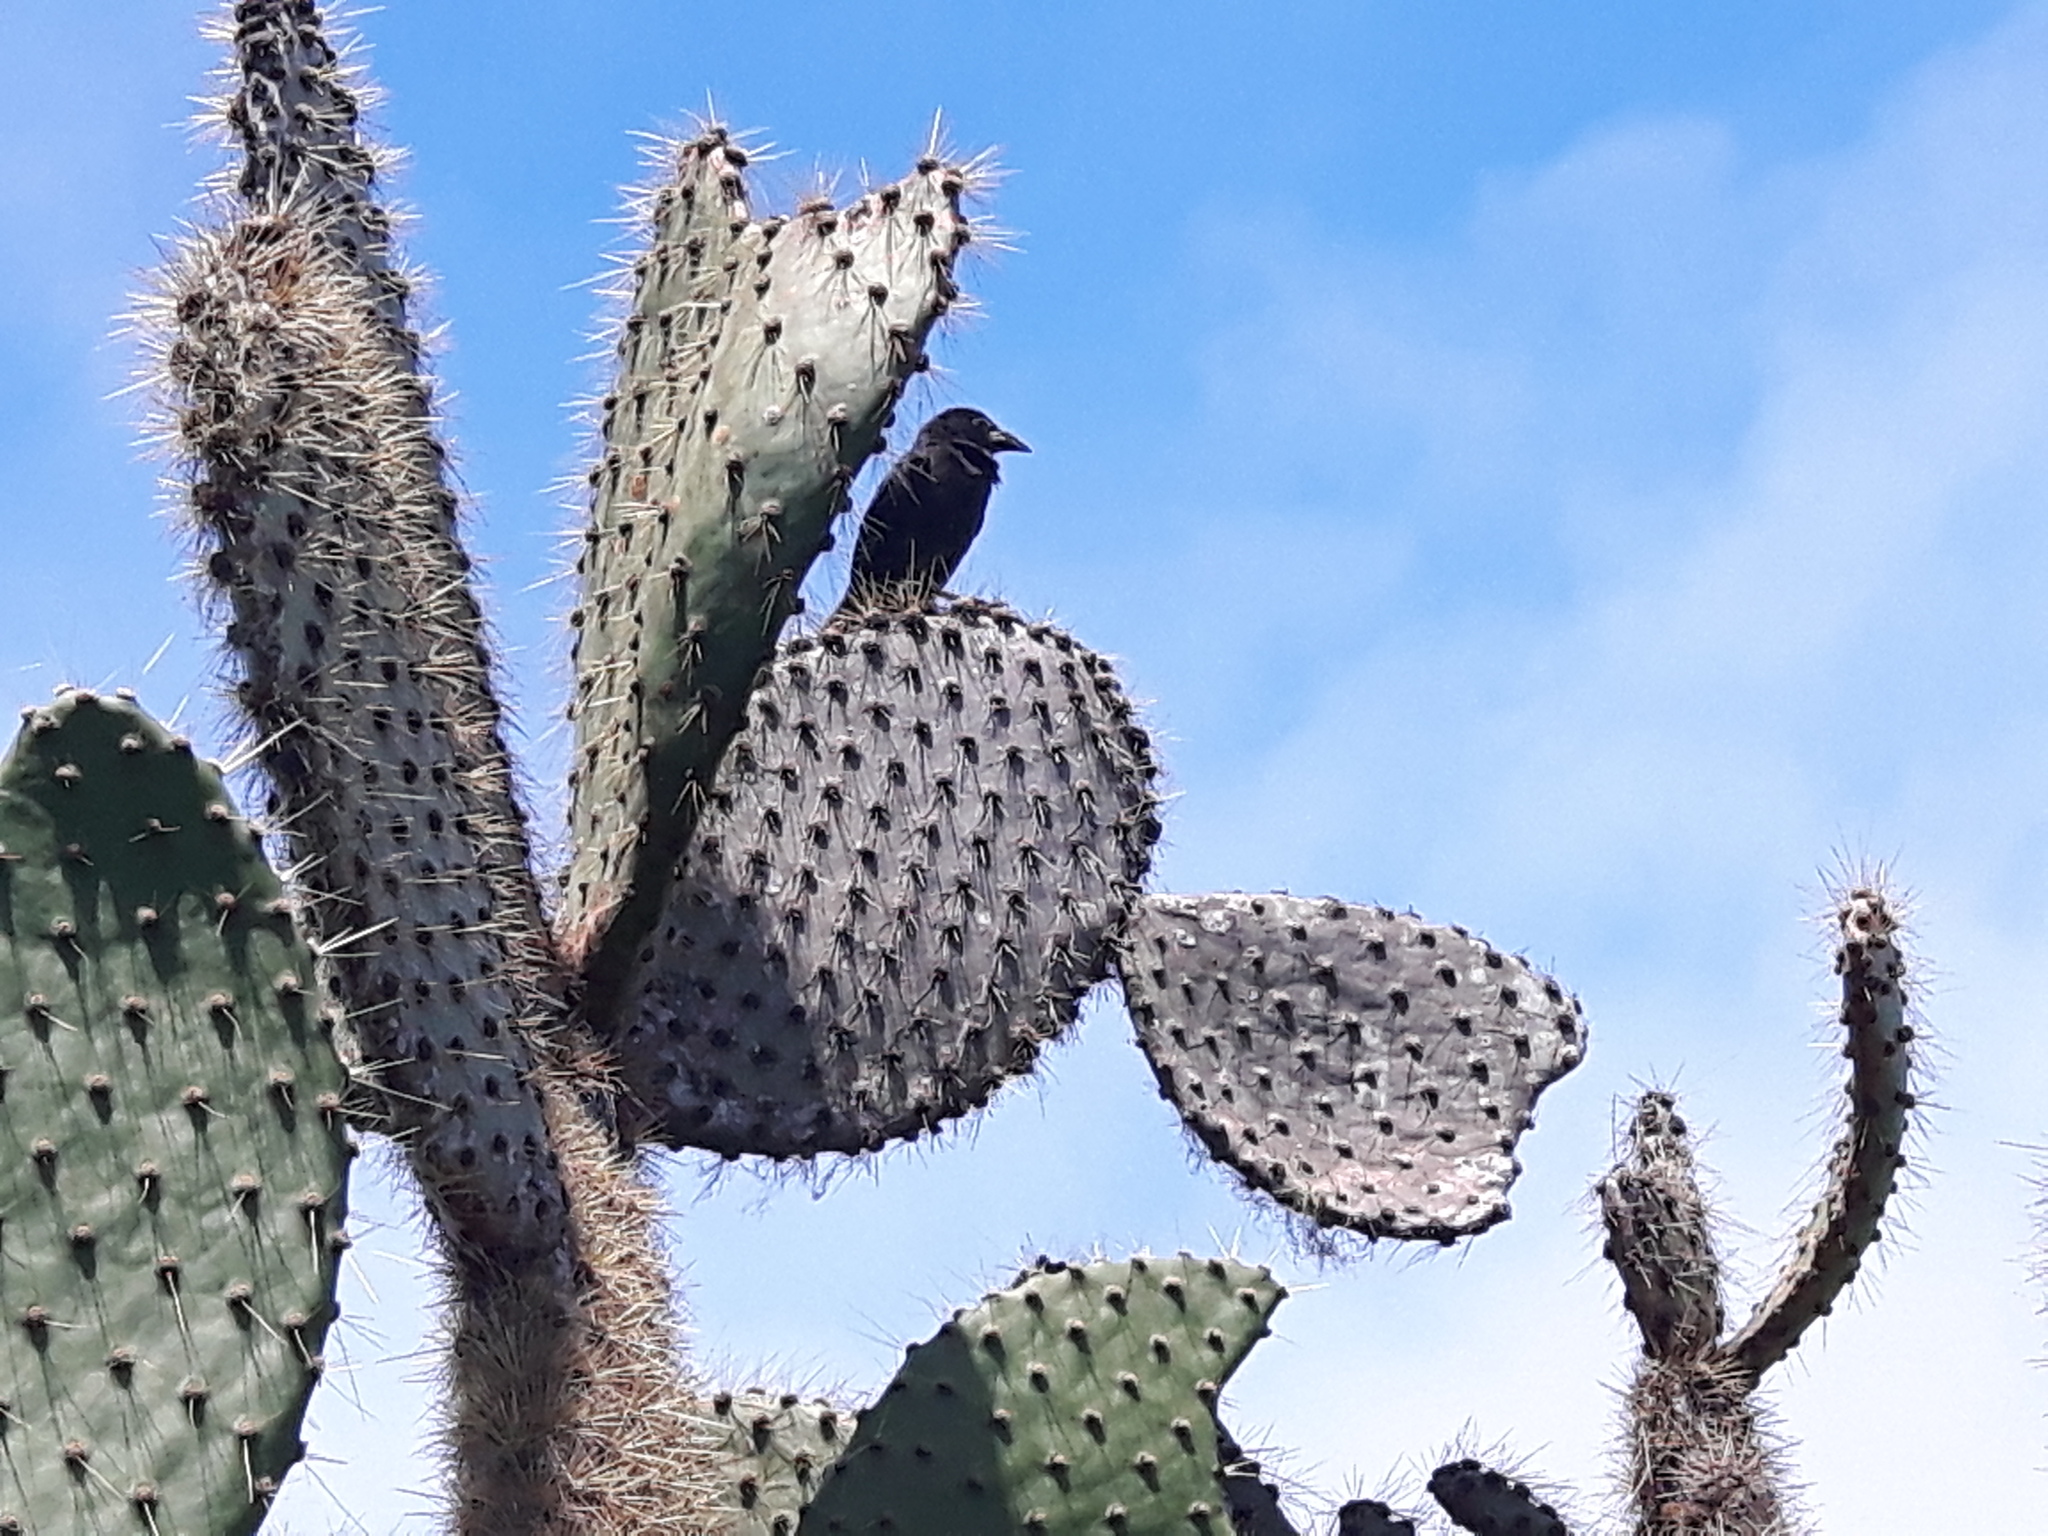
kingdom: Plantae
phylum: Tracheophyta
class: Magnoliopsida
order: Caryophyllales
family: Cactaceae
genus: Opuntia
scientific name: Opuntia galapageia
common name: Galápagos prickly pear
